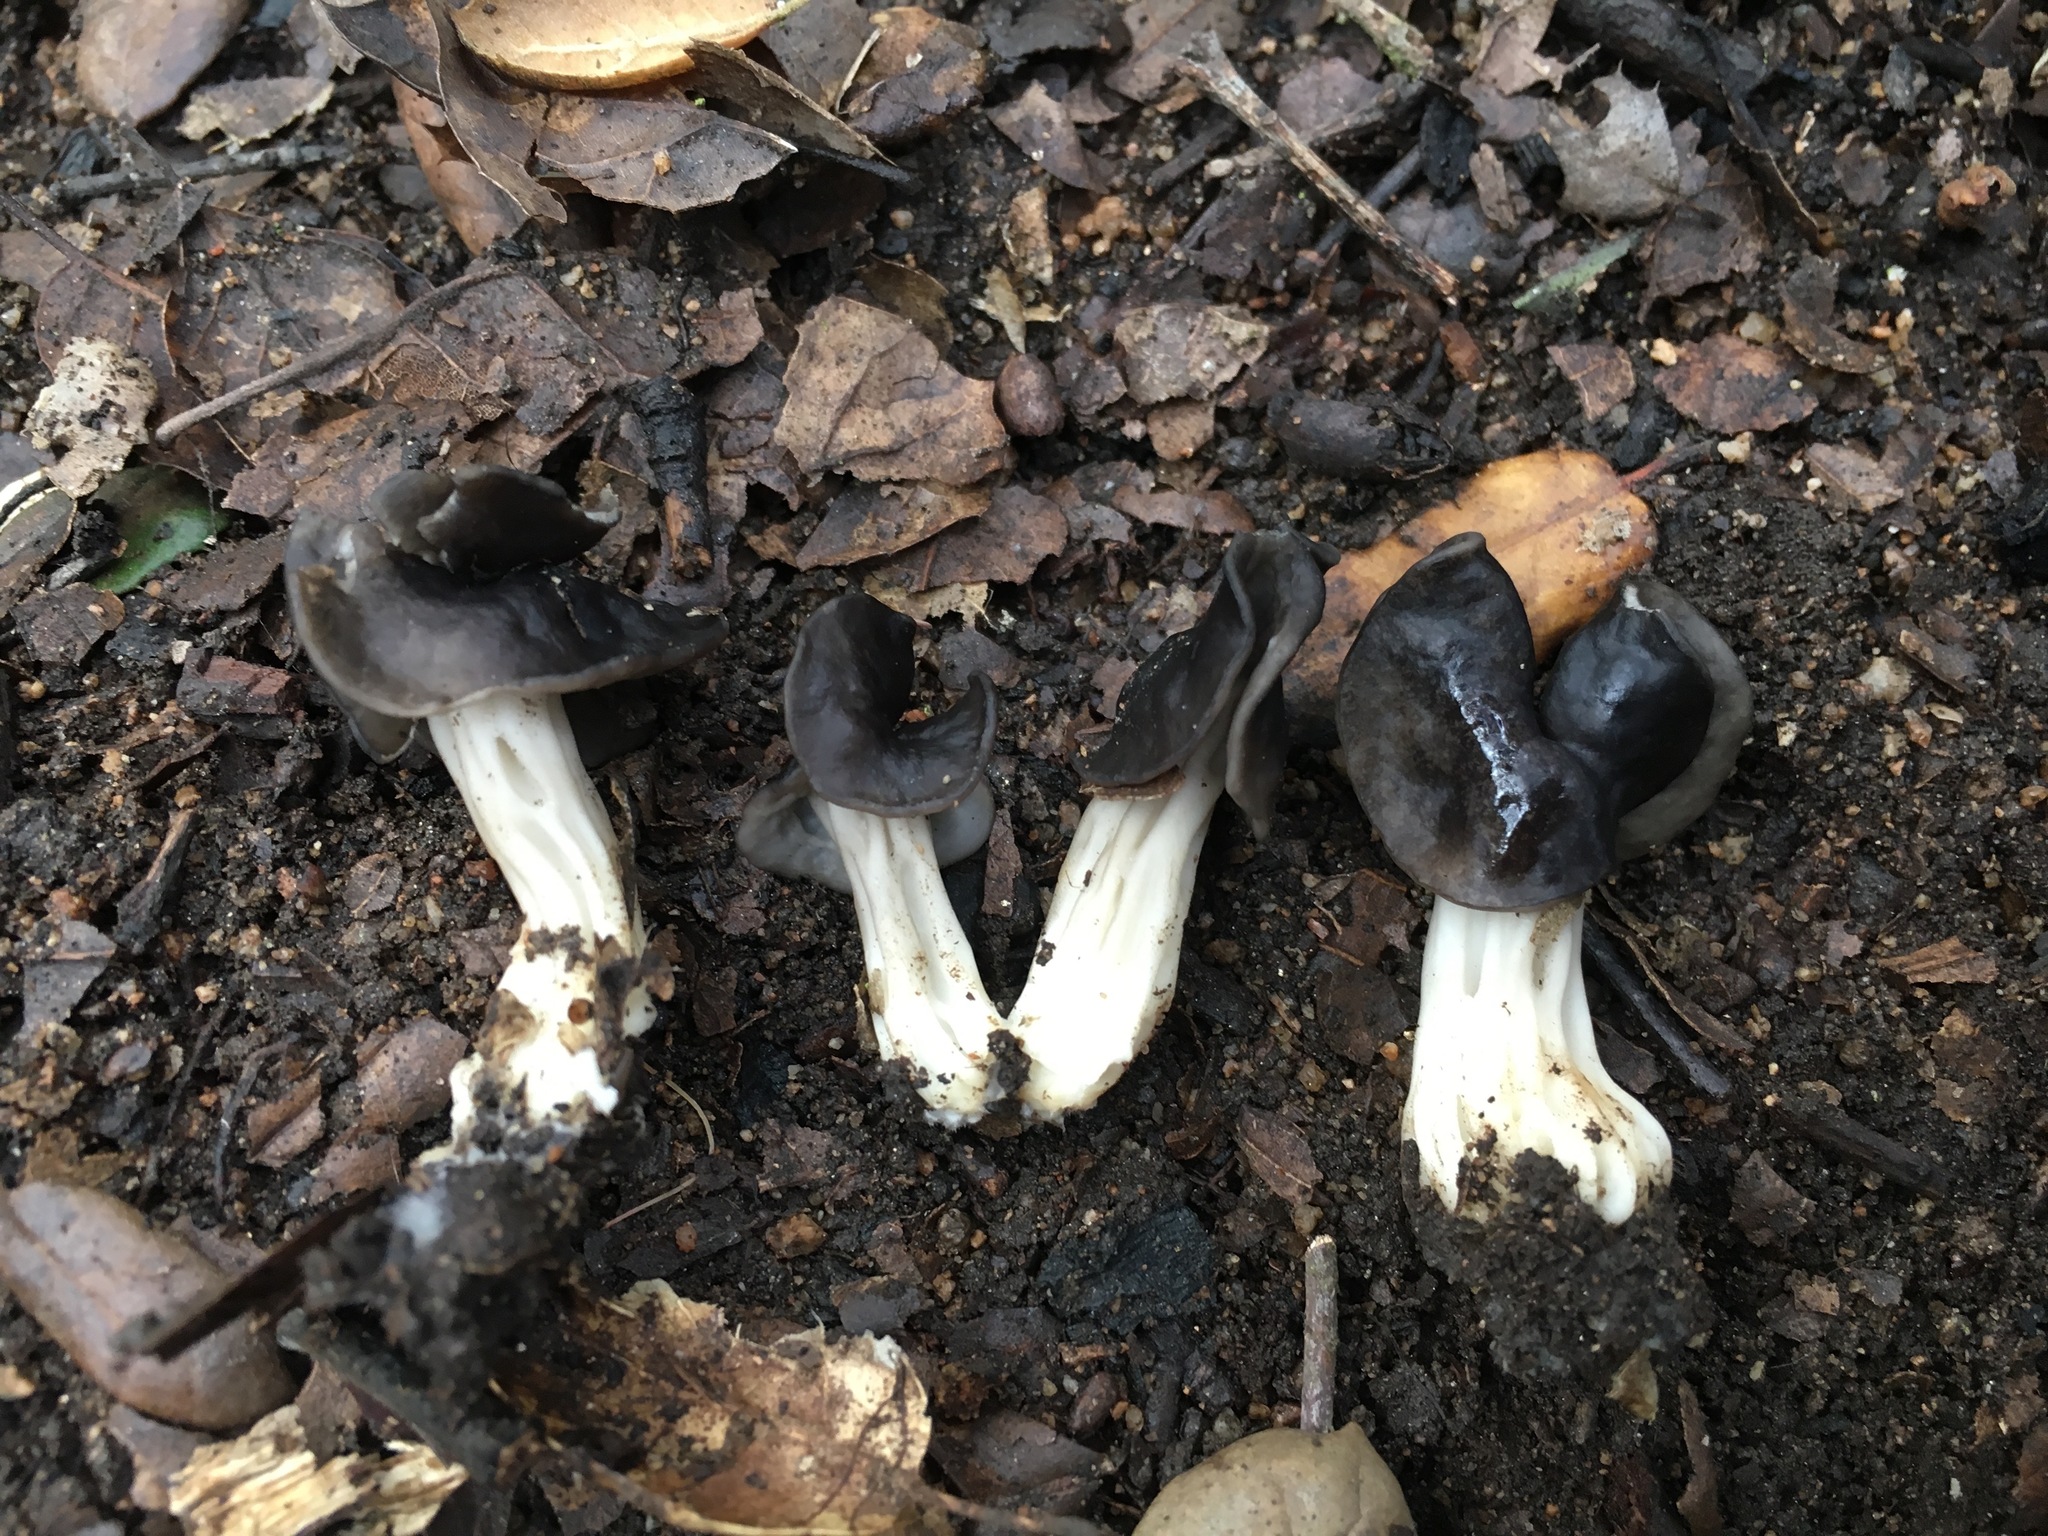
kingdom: Fungi
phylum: Ascomycota
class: Pezizomycetes
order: Pezizales
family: Helvellaceae
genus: Helvella
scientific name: Helvella dryophila
